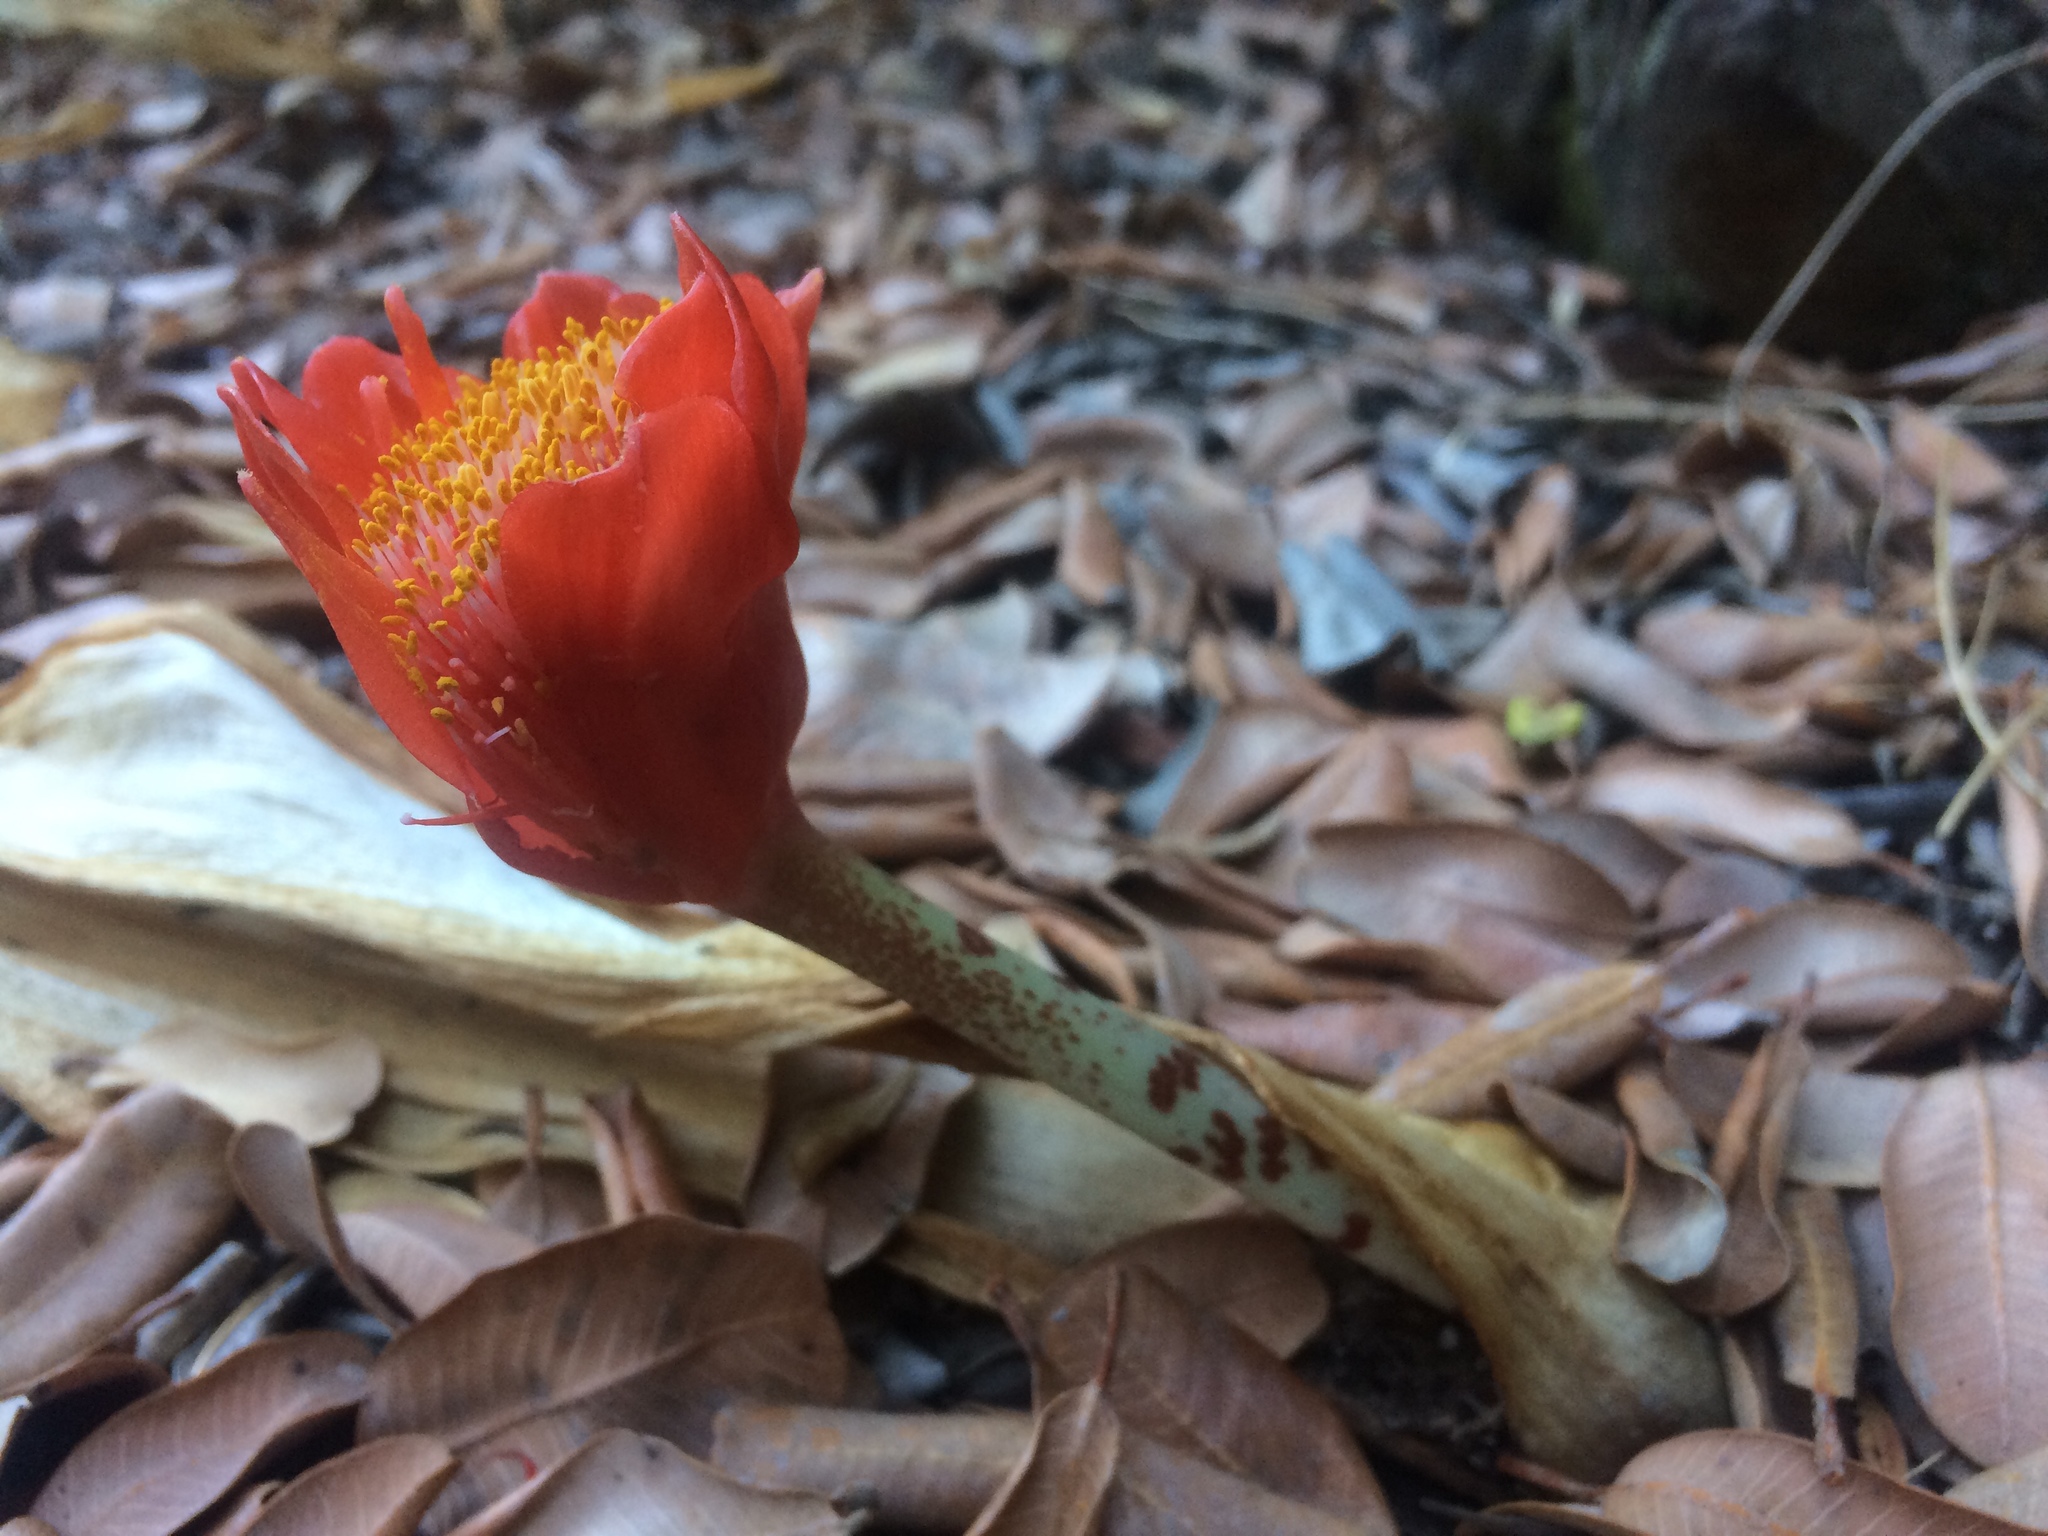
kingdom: Plantae
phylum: Tracheophyta
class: Liliopsida
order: Asparagales
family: Amaryllidaceae
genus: Haemanthus
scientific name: Haemanthus coccineus
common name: Cape-tulip
